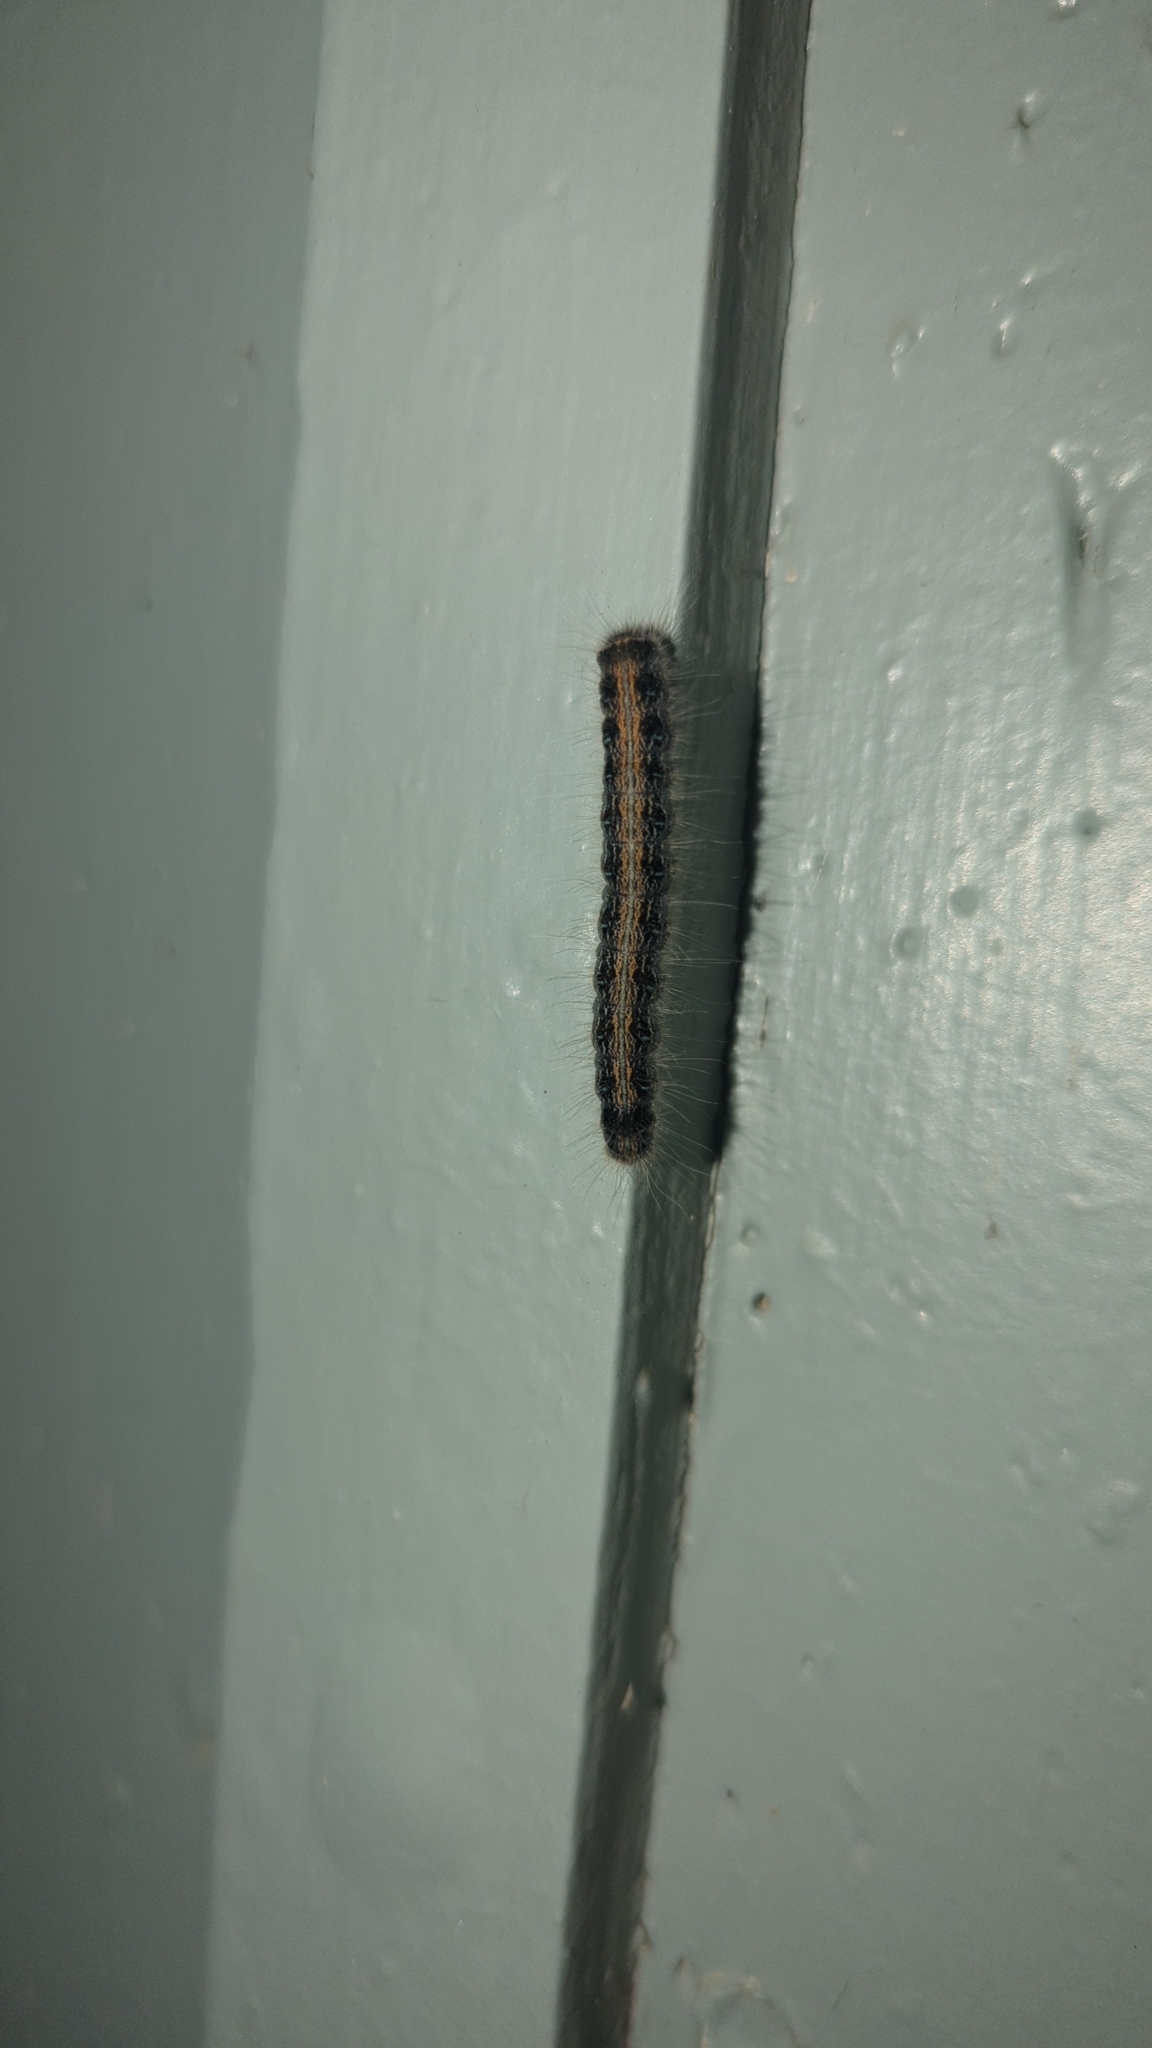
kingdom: Animalia
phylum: Arthropoda
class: Insecta
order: Lepidoptera
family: Lasiocampidae
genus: Malacosoma
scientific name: Malacosoma americana
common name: Eastern tent caterpillar moth
